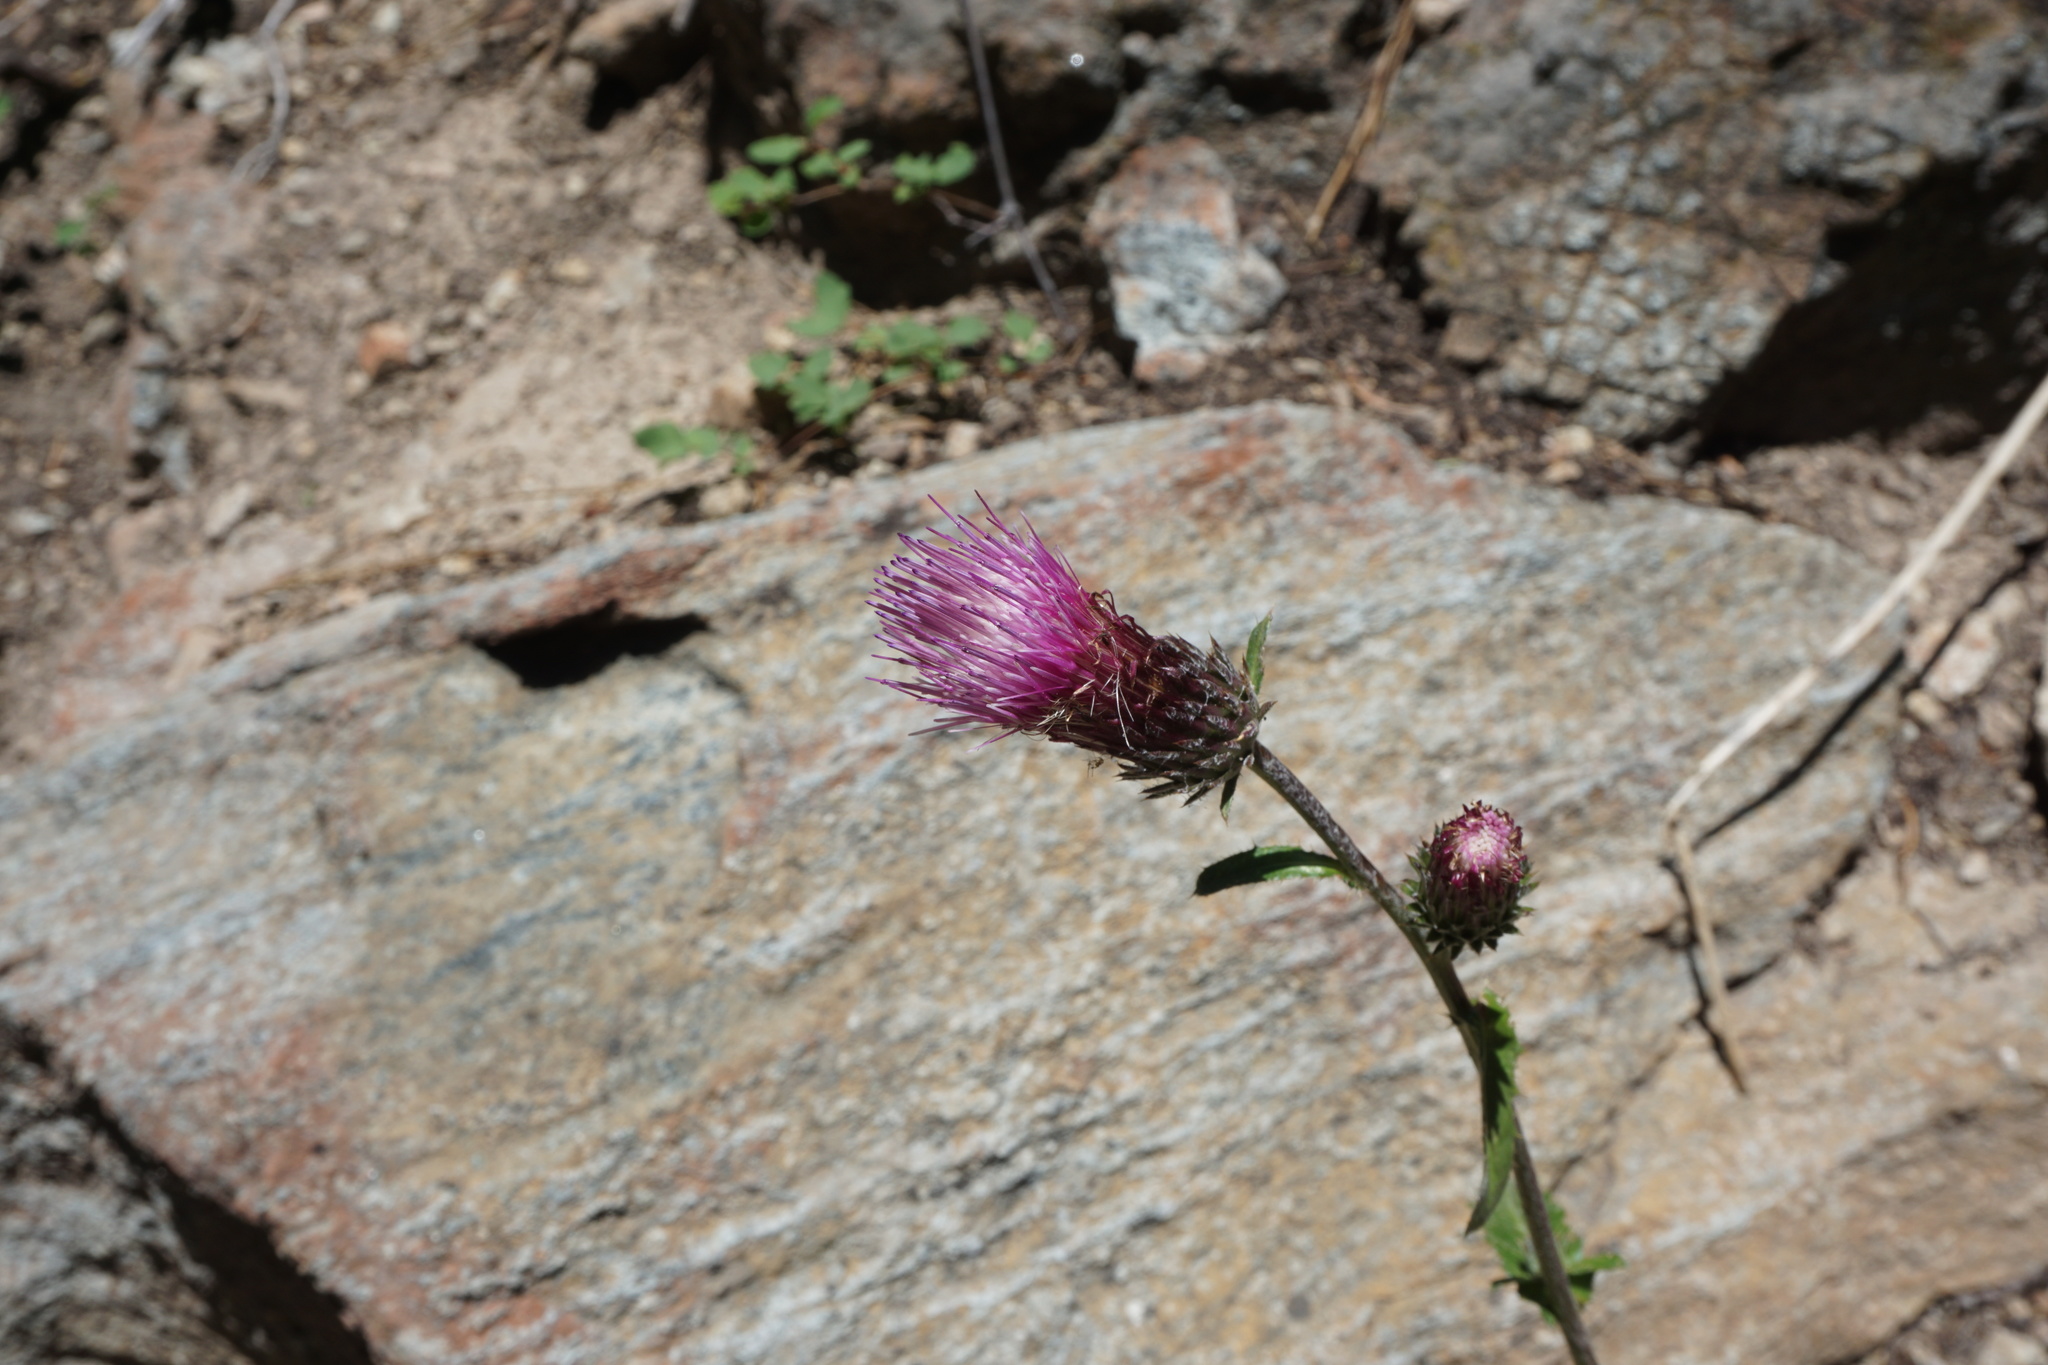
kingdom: Plantae
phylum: Tracheophyta
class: Magnoliopsida
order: Asterales
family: Asteraceae
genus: Cirsium
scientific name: Cirsium andersonii
